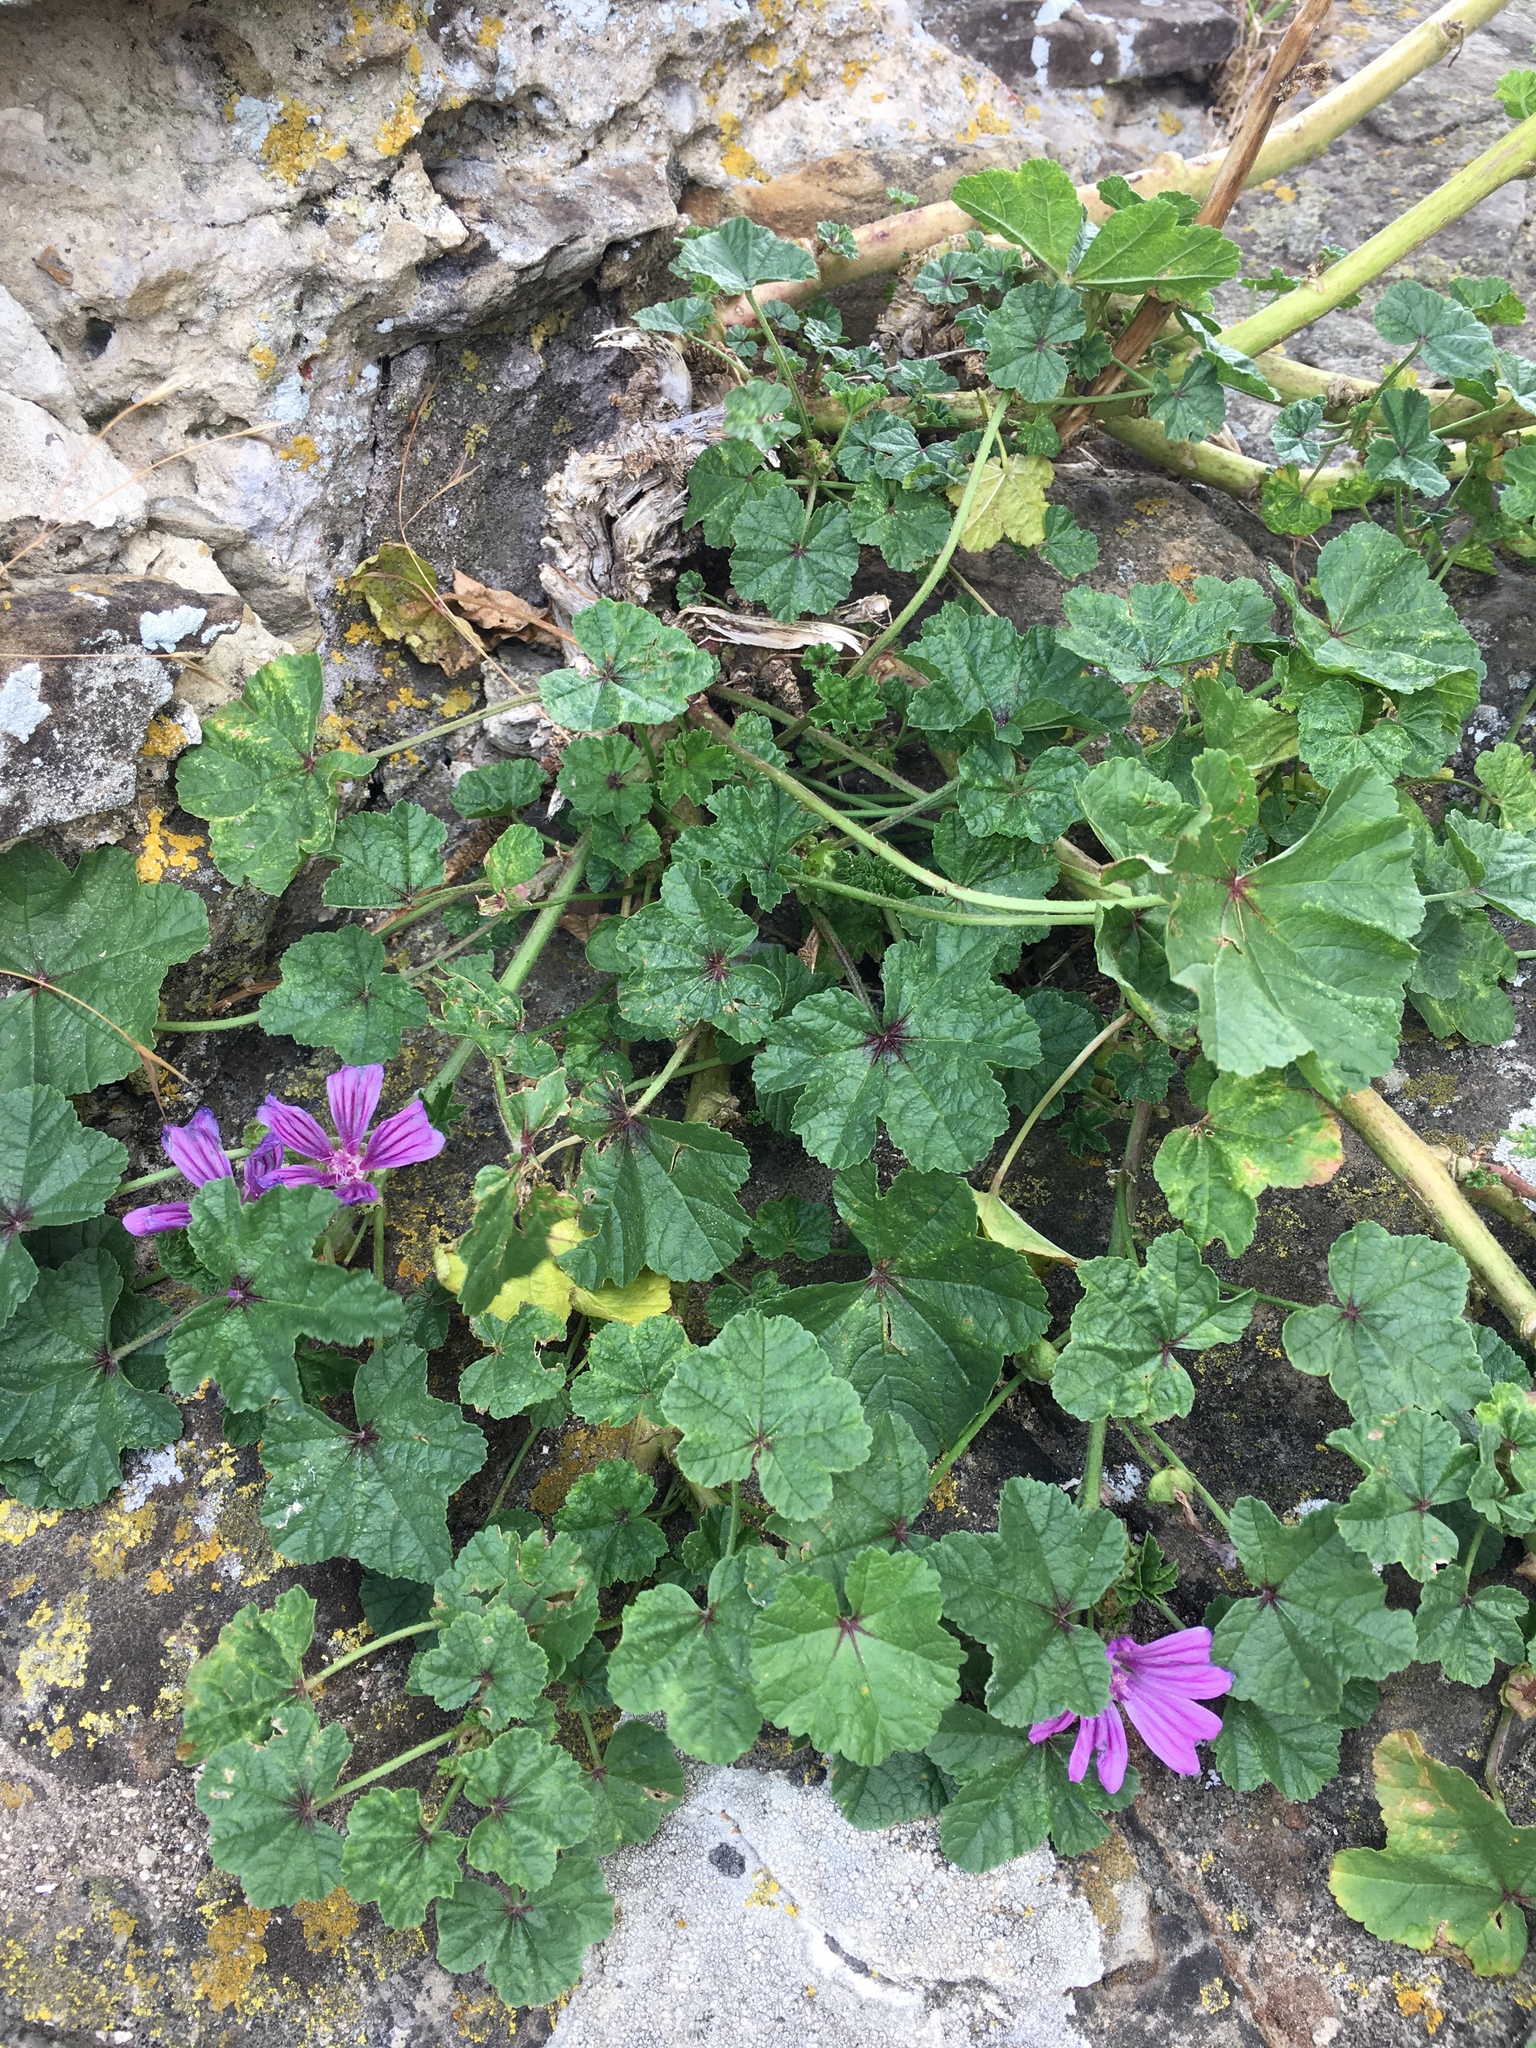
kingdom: Plantae
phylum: Tracheophyta
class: Magnoliopsida
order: Malvales
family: Malvaceae
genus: Malva
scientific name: Malva sylvestris
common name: Common mallow
